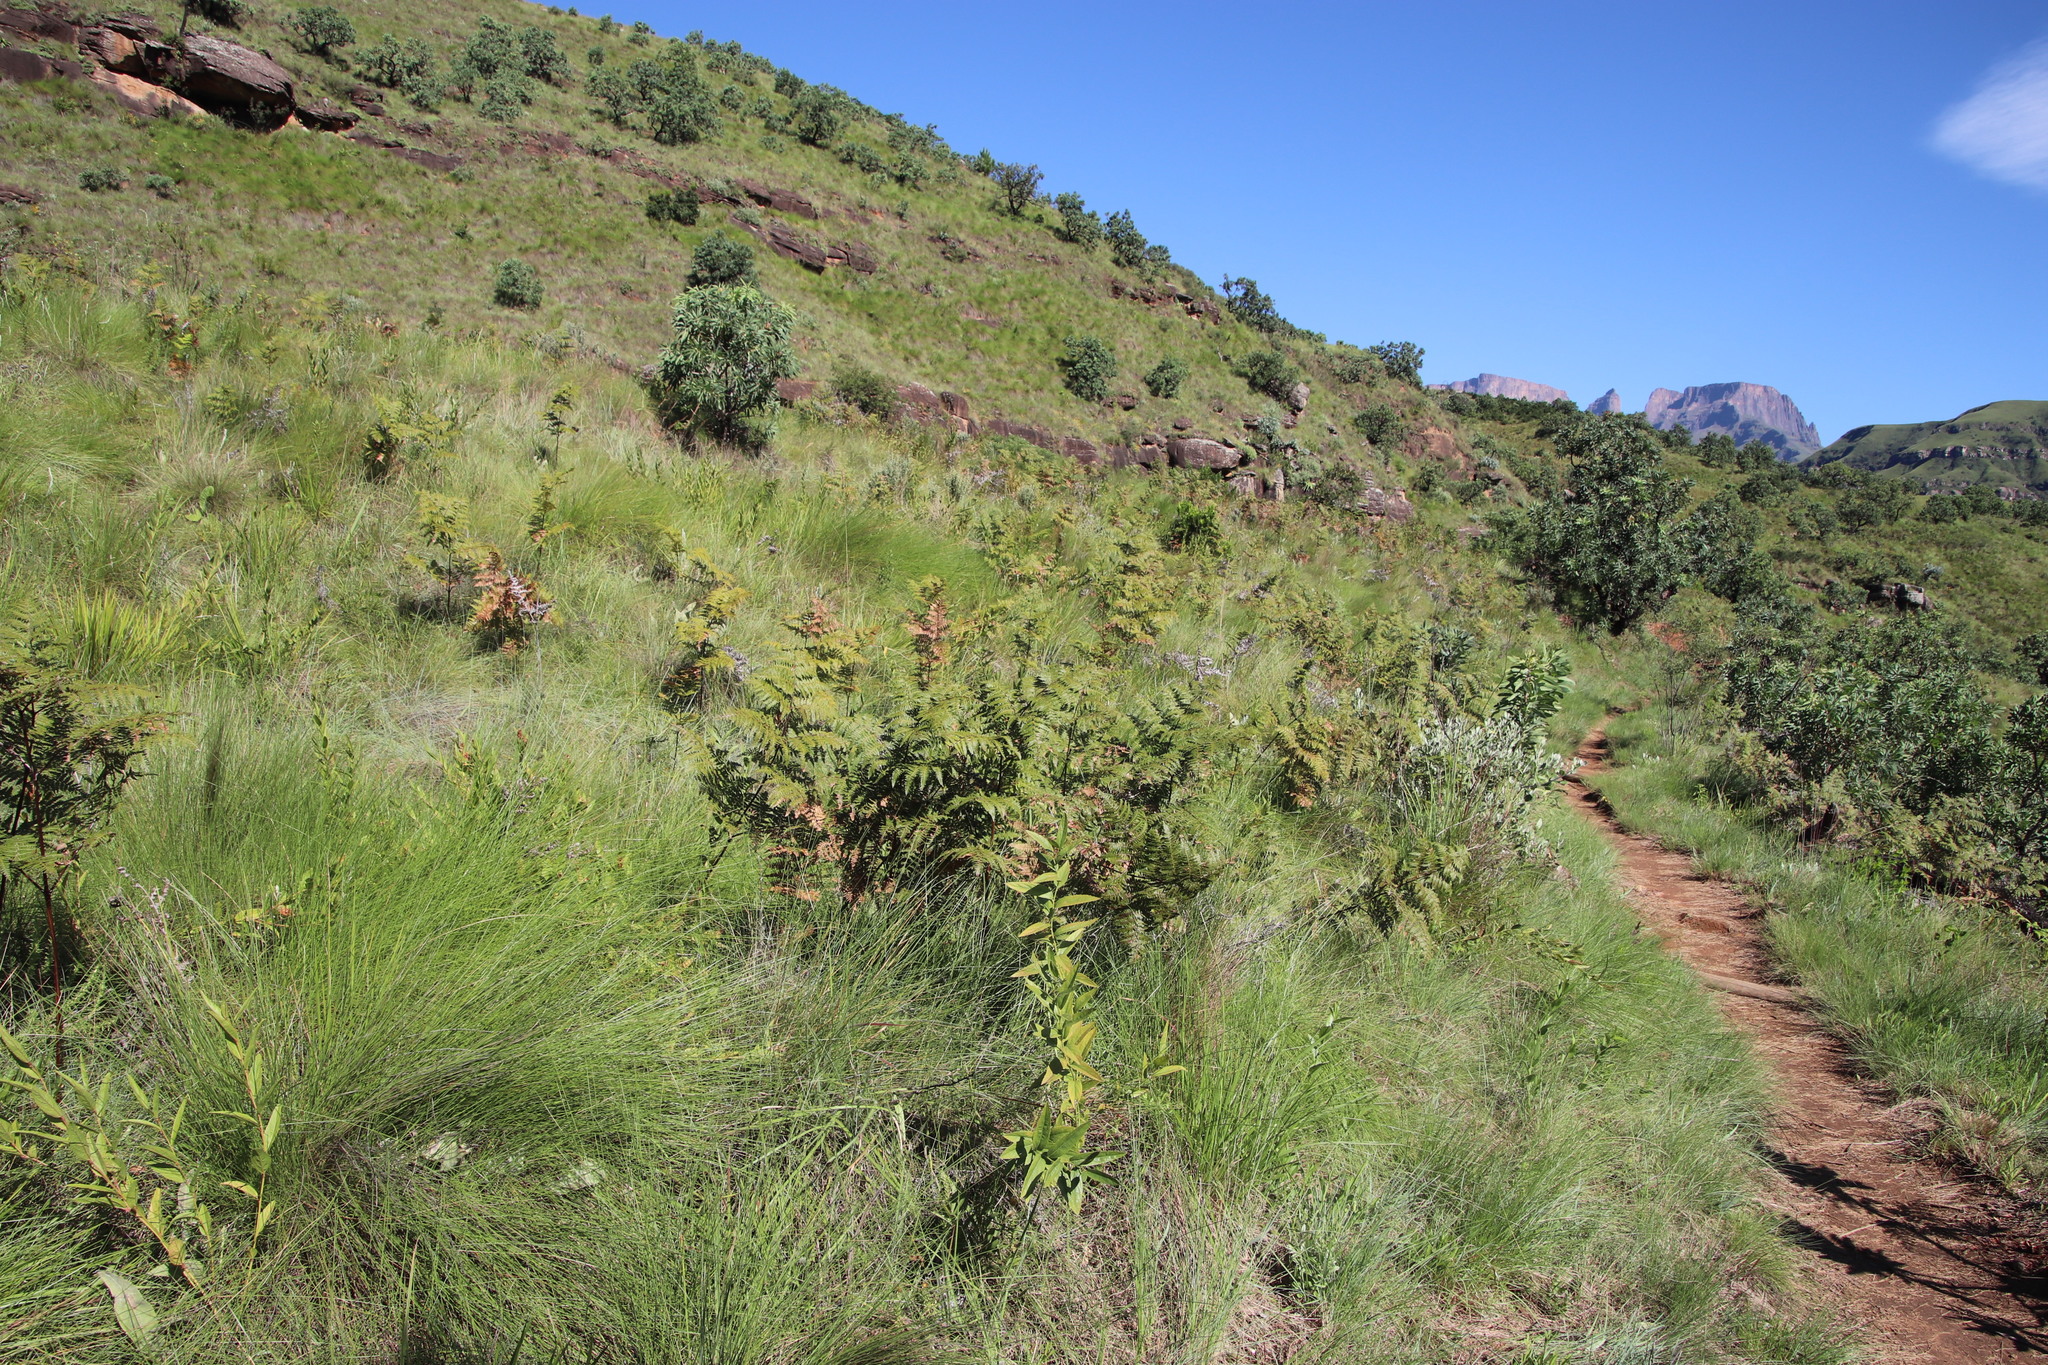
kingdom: Plantae
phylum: Tracheophyta
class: Polypodiopsida
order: Polypodiales
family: Dennstaedtiaceae
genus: Pteridium
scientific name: Pteridium aquilinum
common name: Bracken
